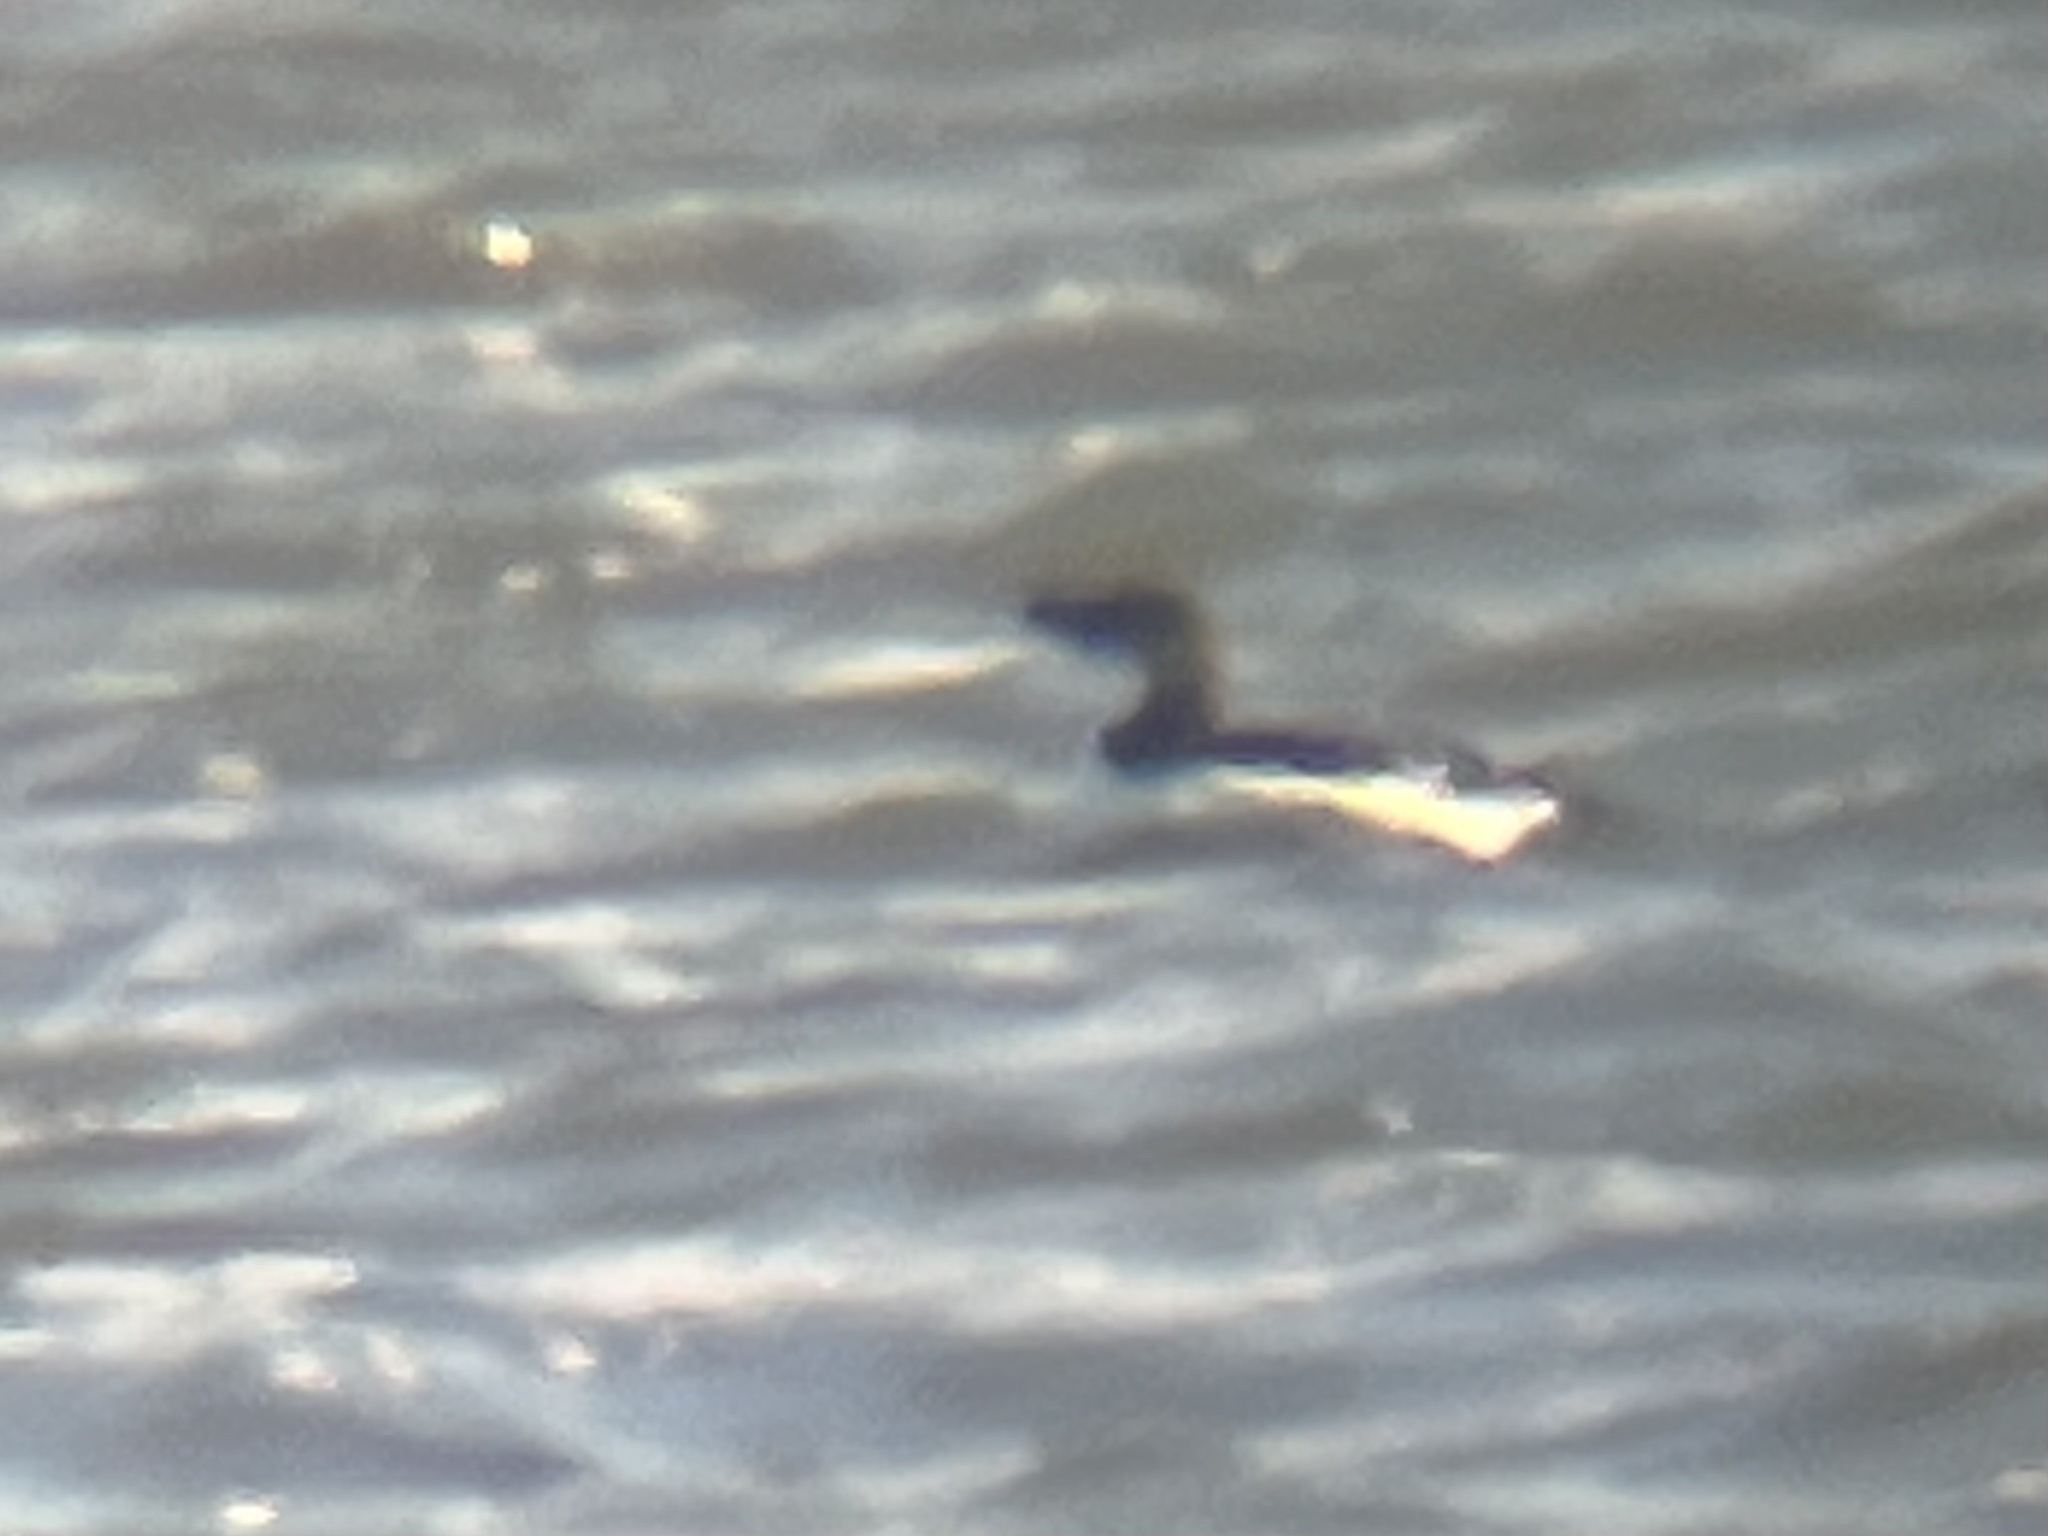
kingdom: Animalia
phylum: Chordata
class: Aves
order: Charadriiformes
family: Alcidae
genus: Alca
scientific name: Alca torda
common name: Razorbill
